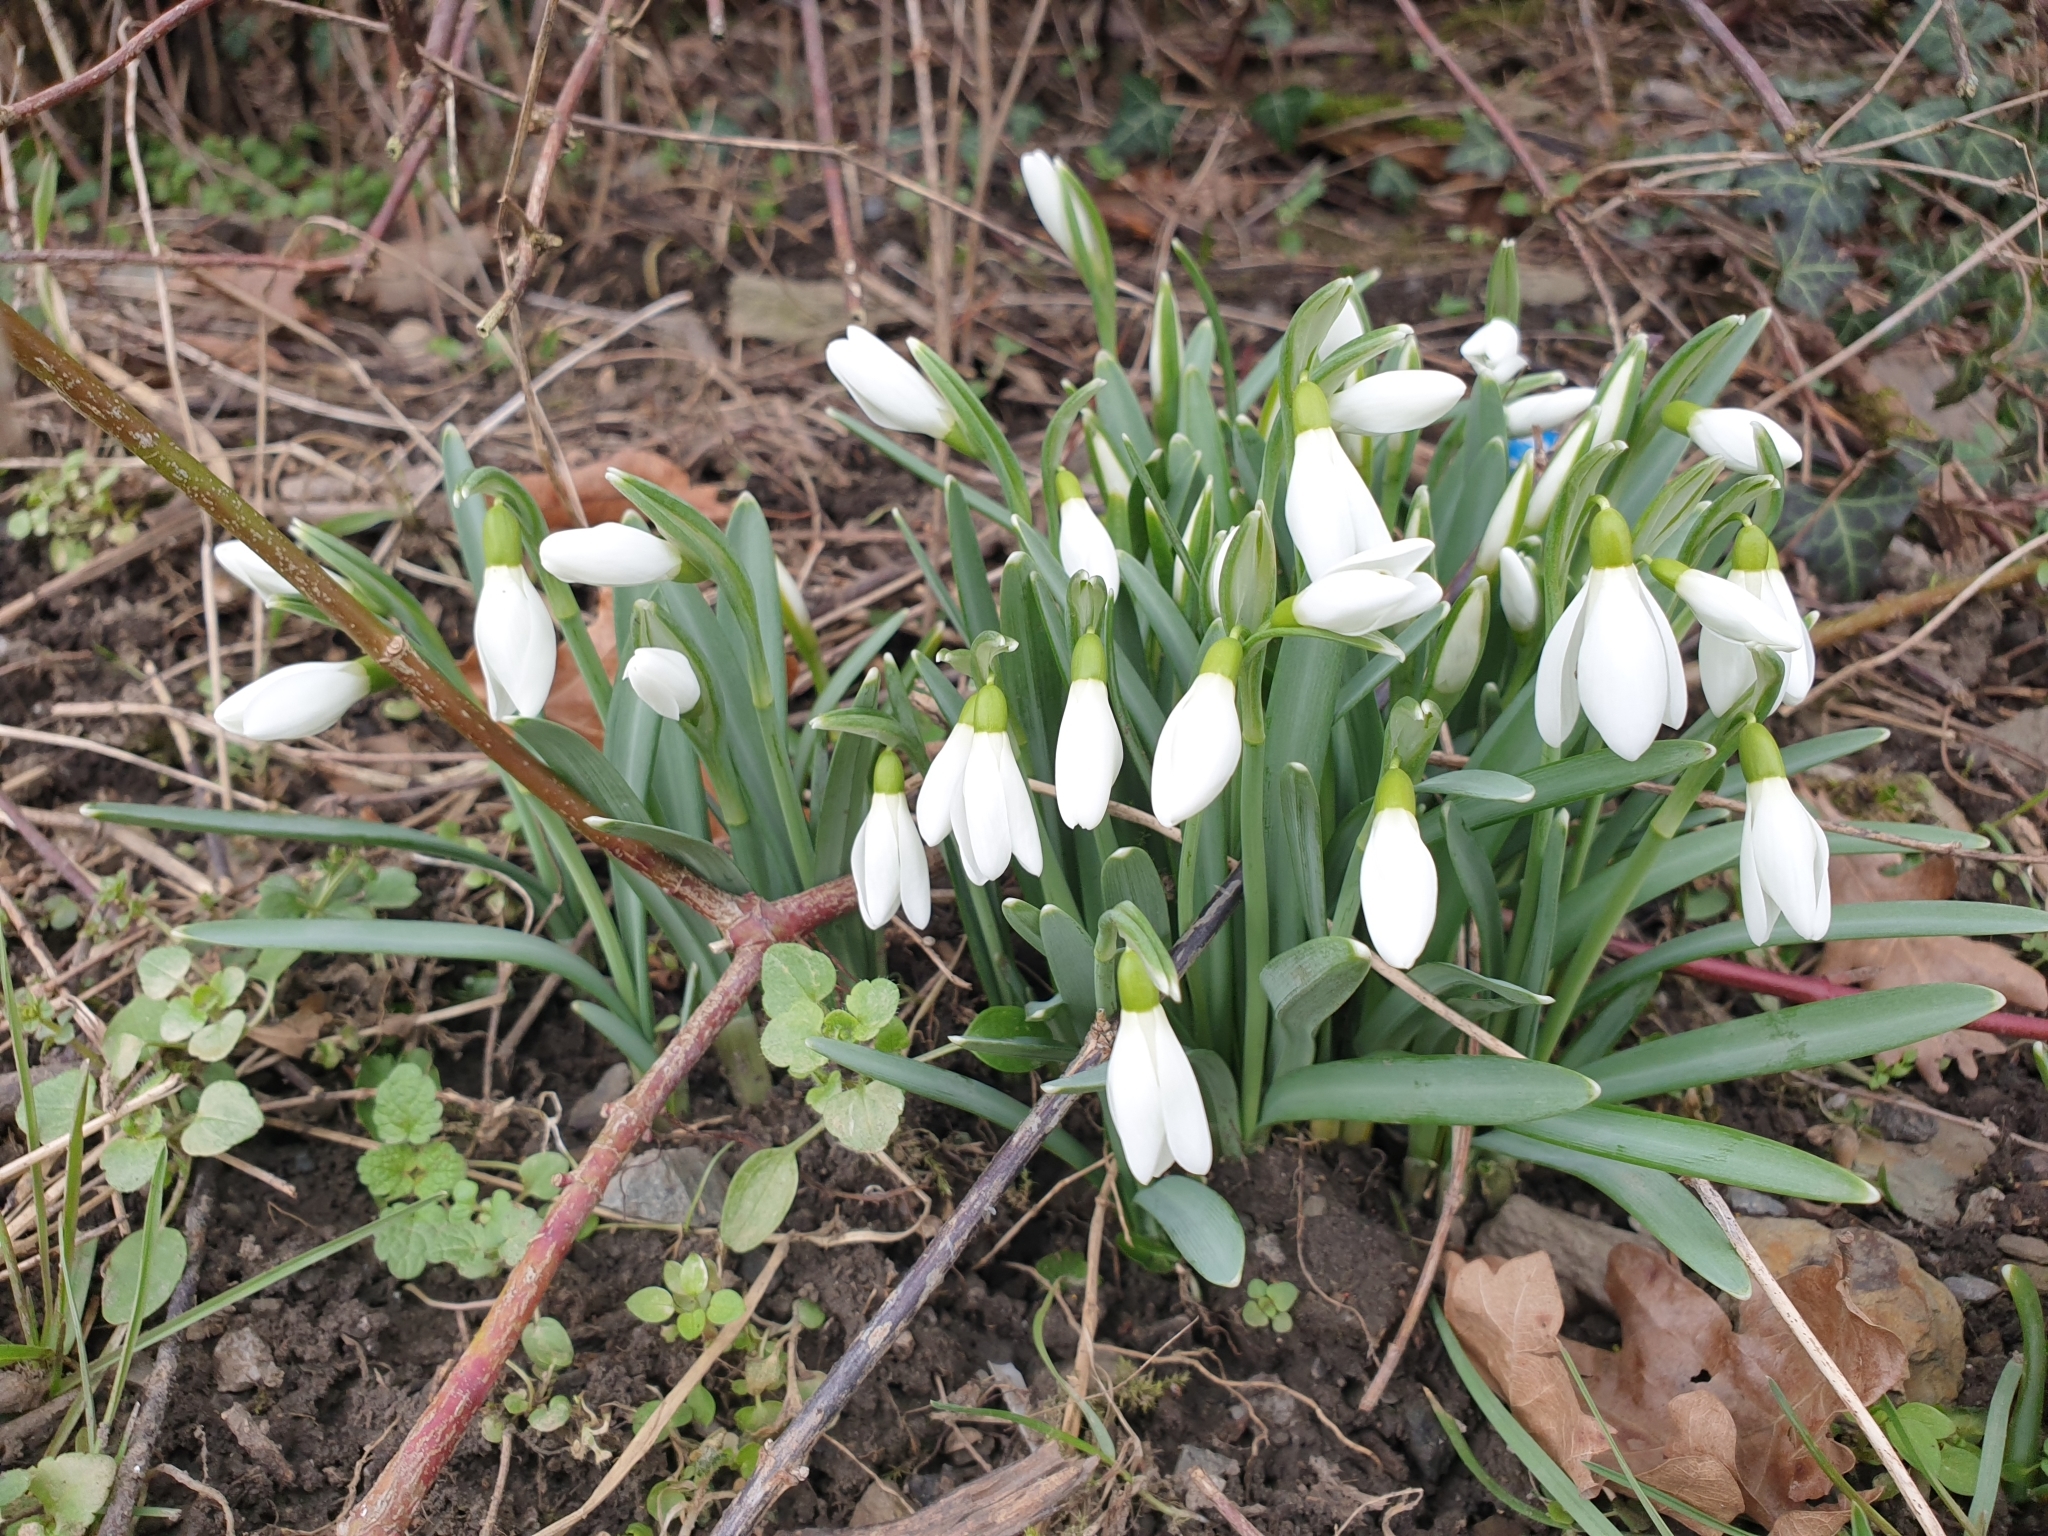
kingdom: Plantae
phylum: Tracheophyta
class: Liliopsida
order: Asparagales
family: Amaryllidaceae
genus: Galanthus
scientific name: Galanthus nivalis
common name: Snowdrop
